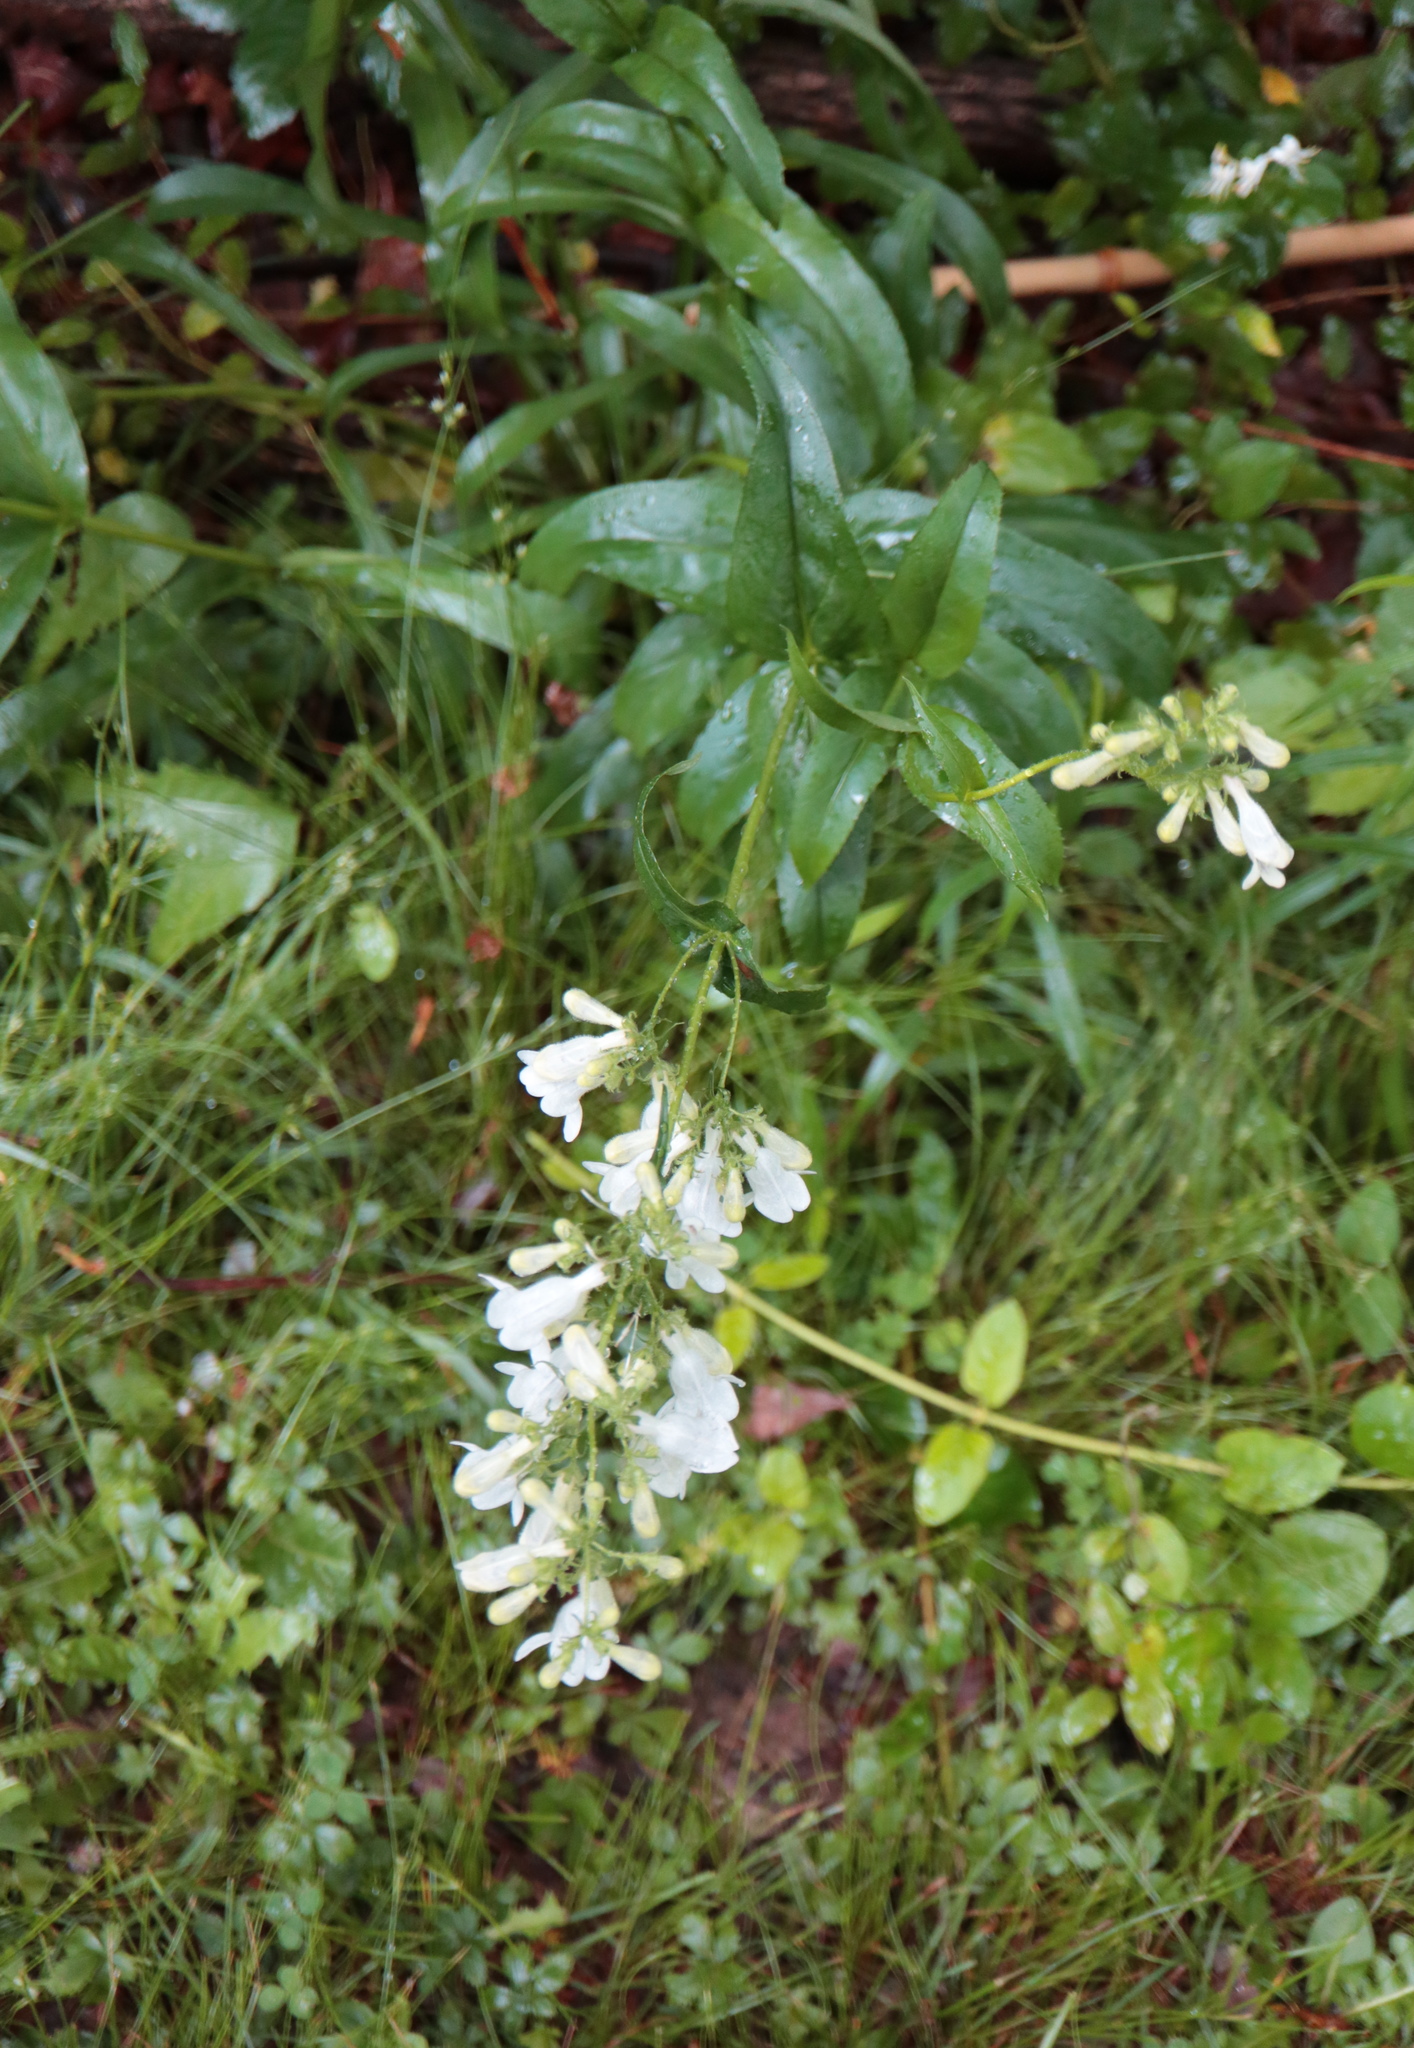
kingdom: Plantae
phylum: Tracheophyta
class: Magnoliopsida
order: Lamiales
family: Plantaginaceae
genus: Penstemon
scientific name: Penstemon digitalis
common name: Foxglove beardtongue
